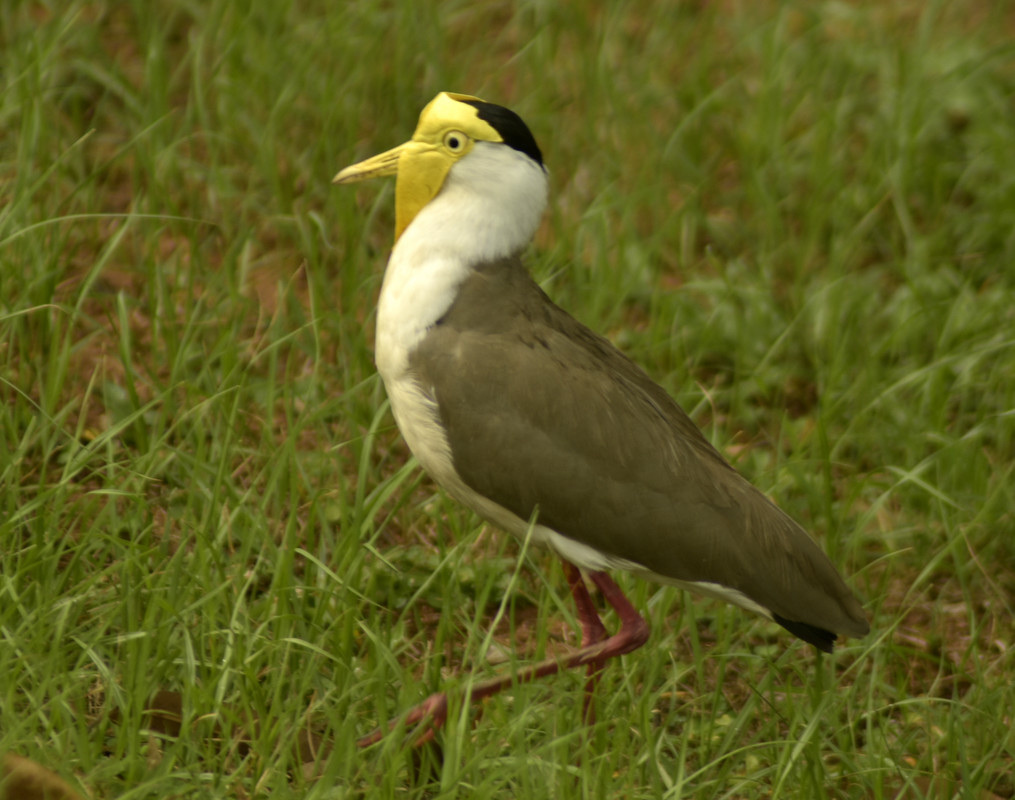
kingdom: Animalia
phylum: Chordata
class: Aves
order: Charadriiformes
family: Charadriidae
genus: Vanellus
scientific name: Vanellus miles
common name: Masked lapwing
